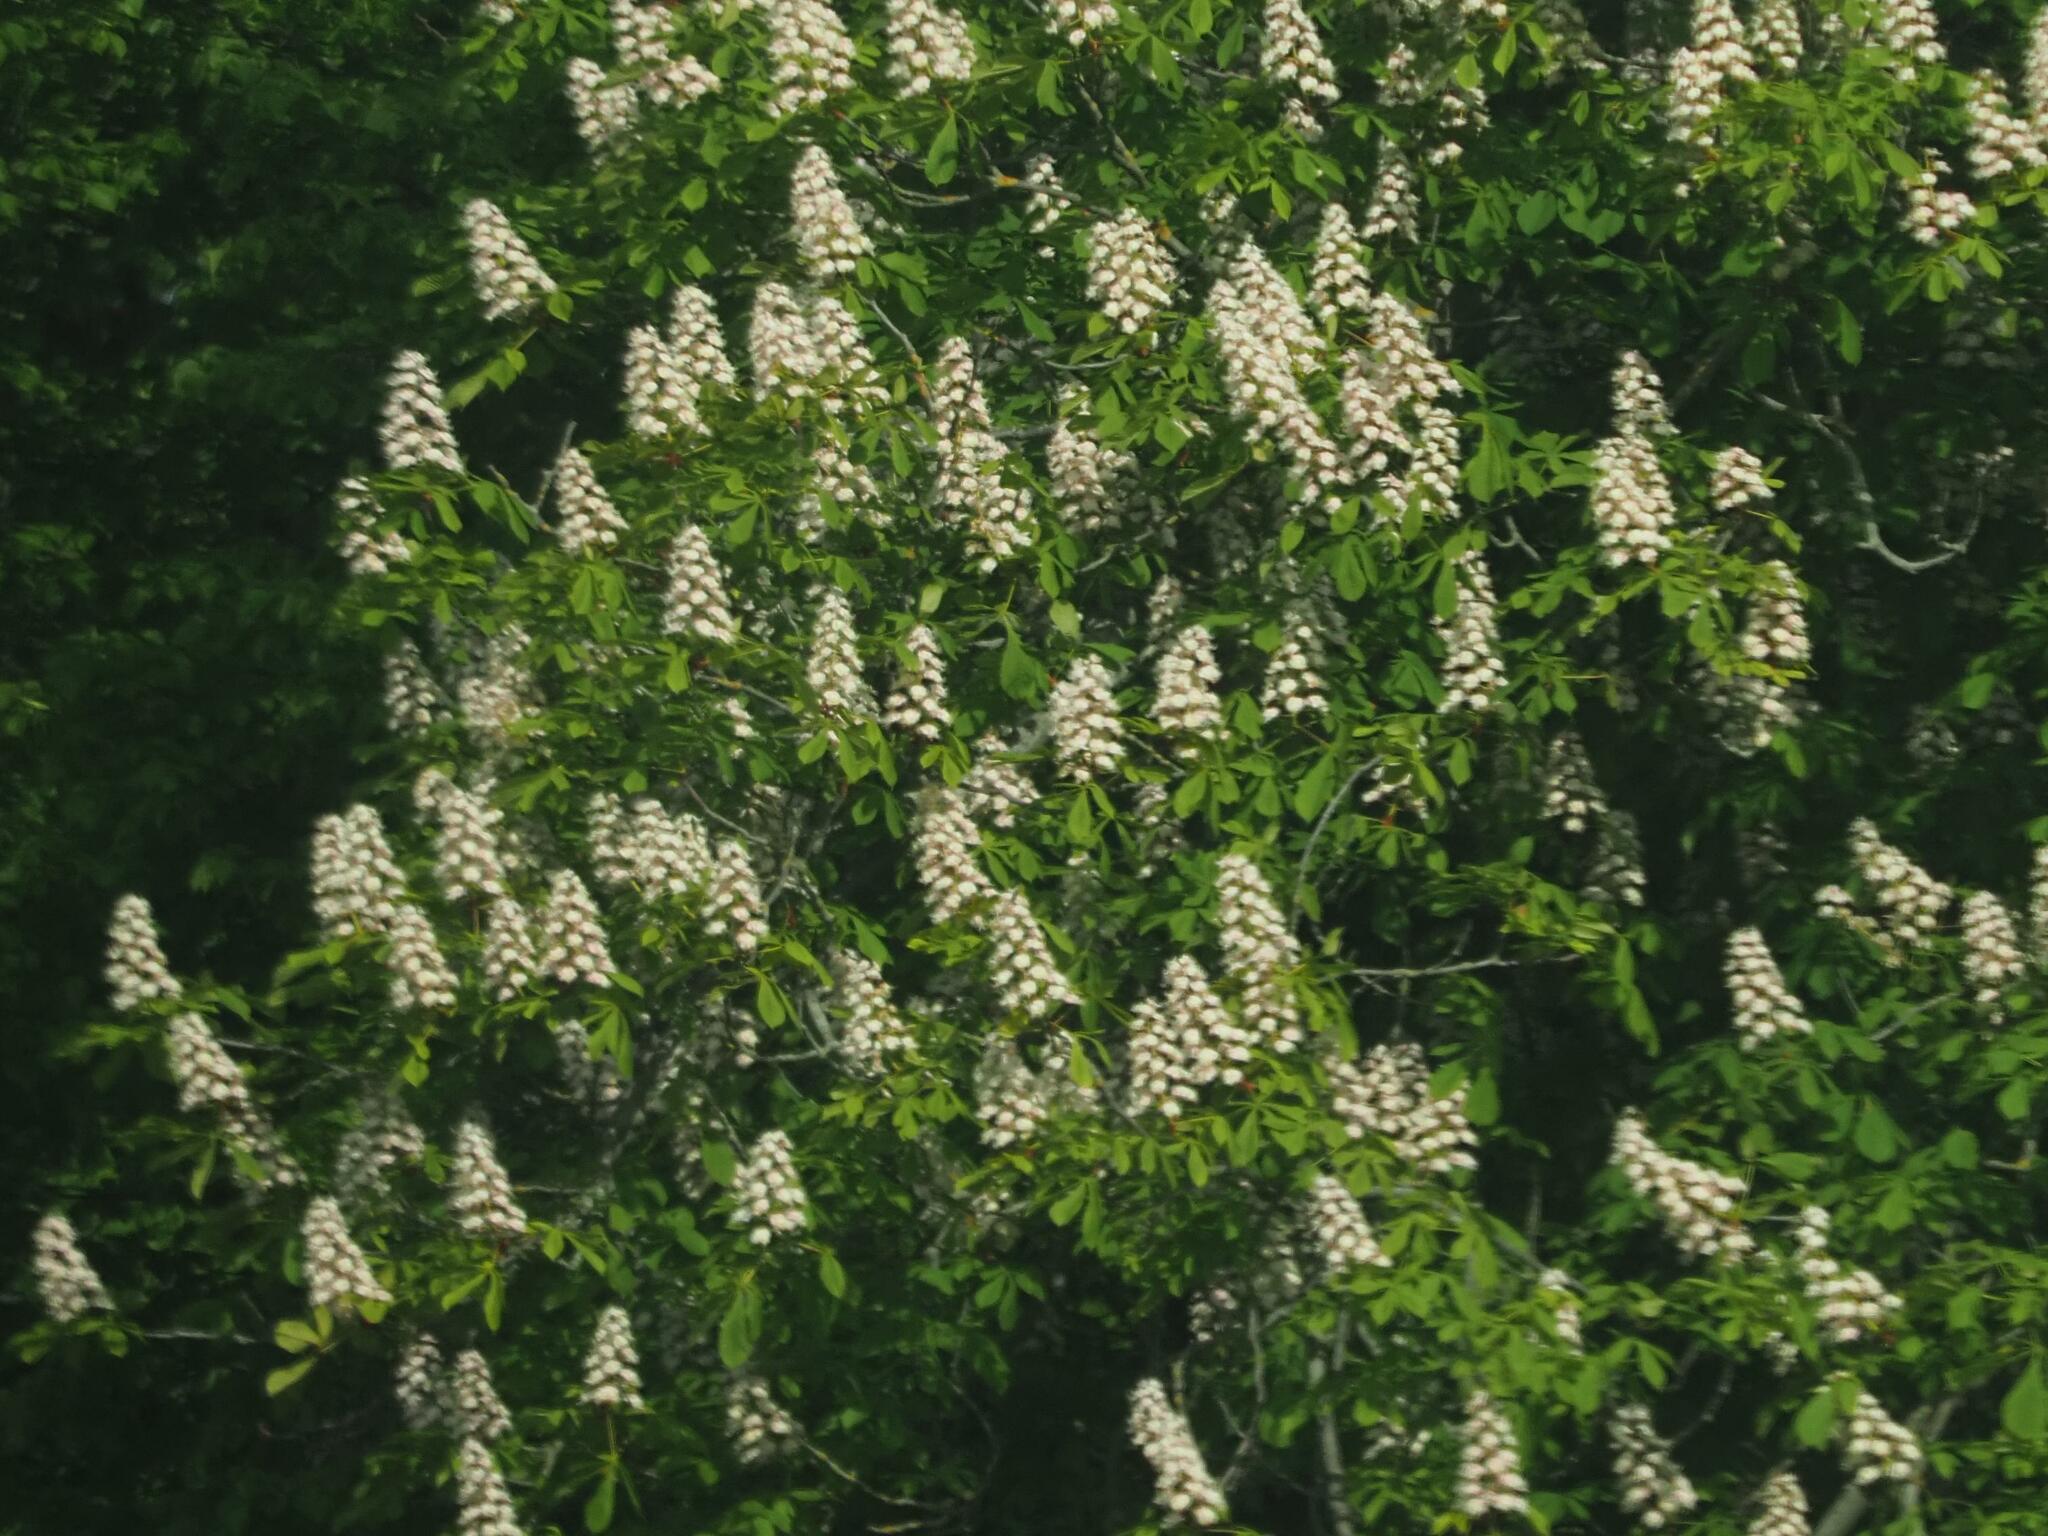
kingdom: Plantae
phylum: Tracheophyta
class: Magnoliopsida
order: Sapindales
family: Sapindaceae
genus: Aesculus
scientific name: Aesculus hippocastanum
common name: Horse-chestnut
